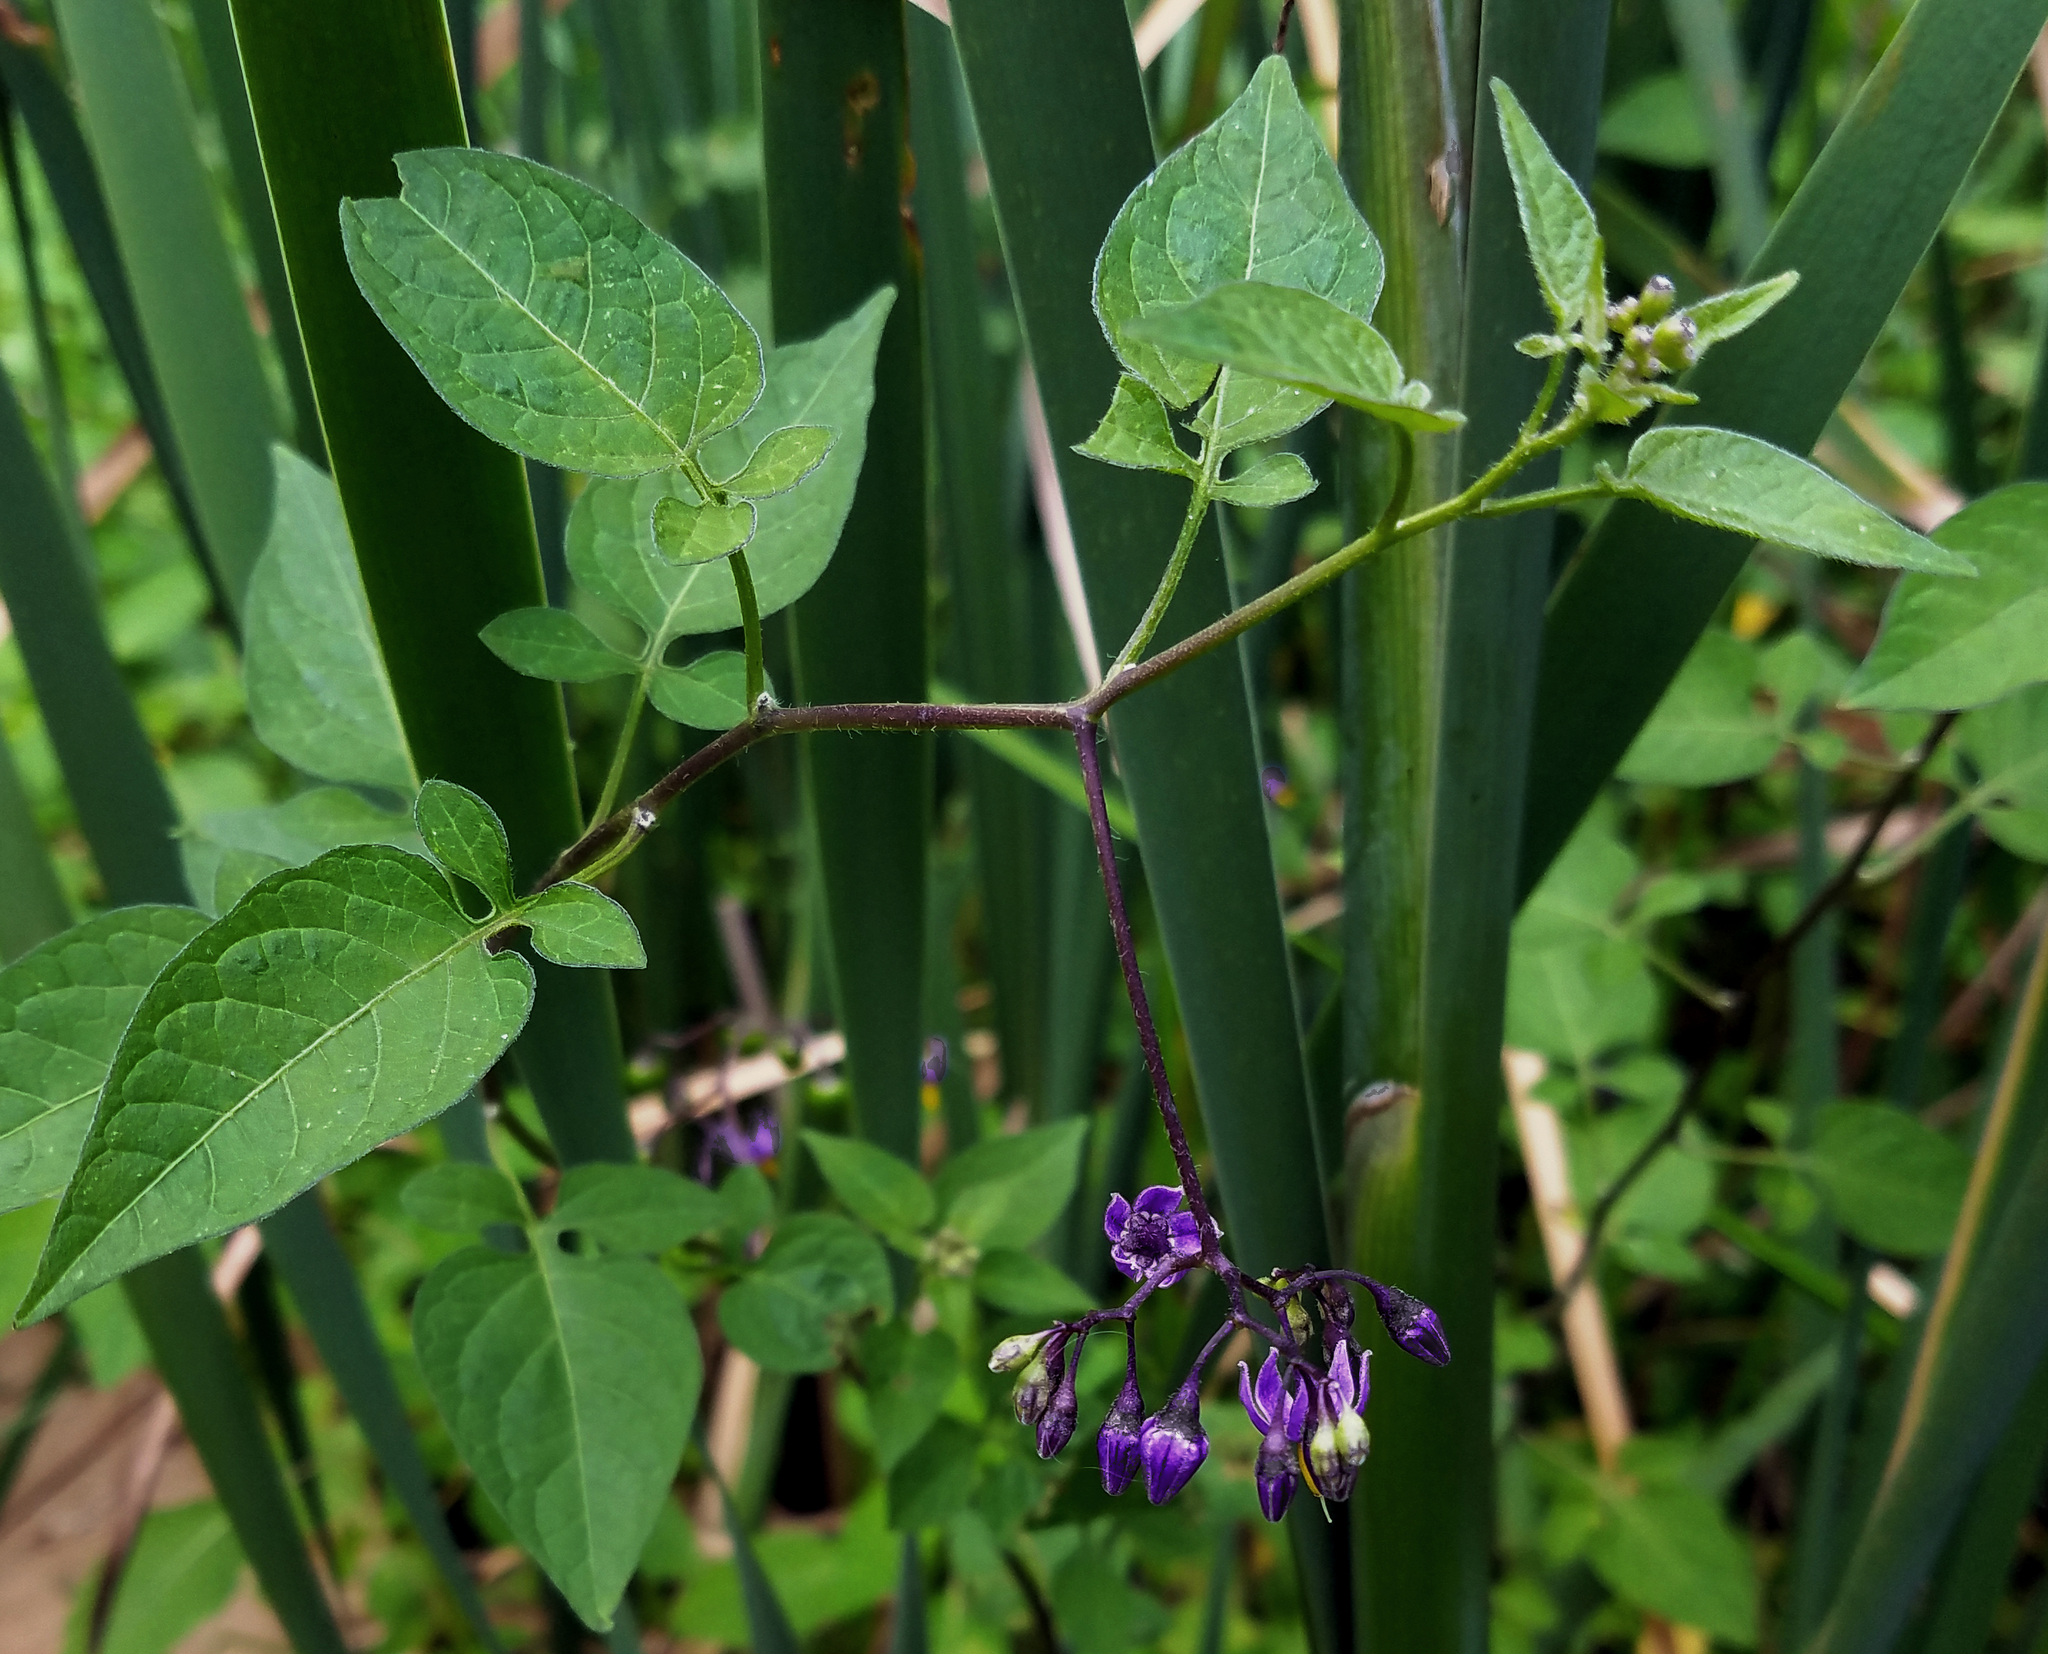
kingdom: Plantae
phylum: Tracheophyta
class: Magnoliopsida
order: Solanales
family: Solanaceae
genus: Solanum
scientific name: Solanum dulcamara
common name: Climbing nightshade
